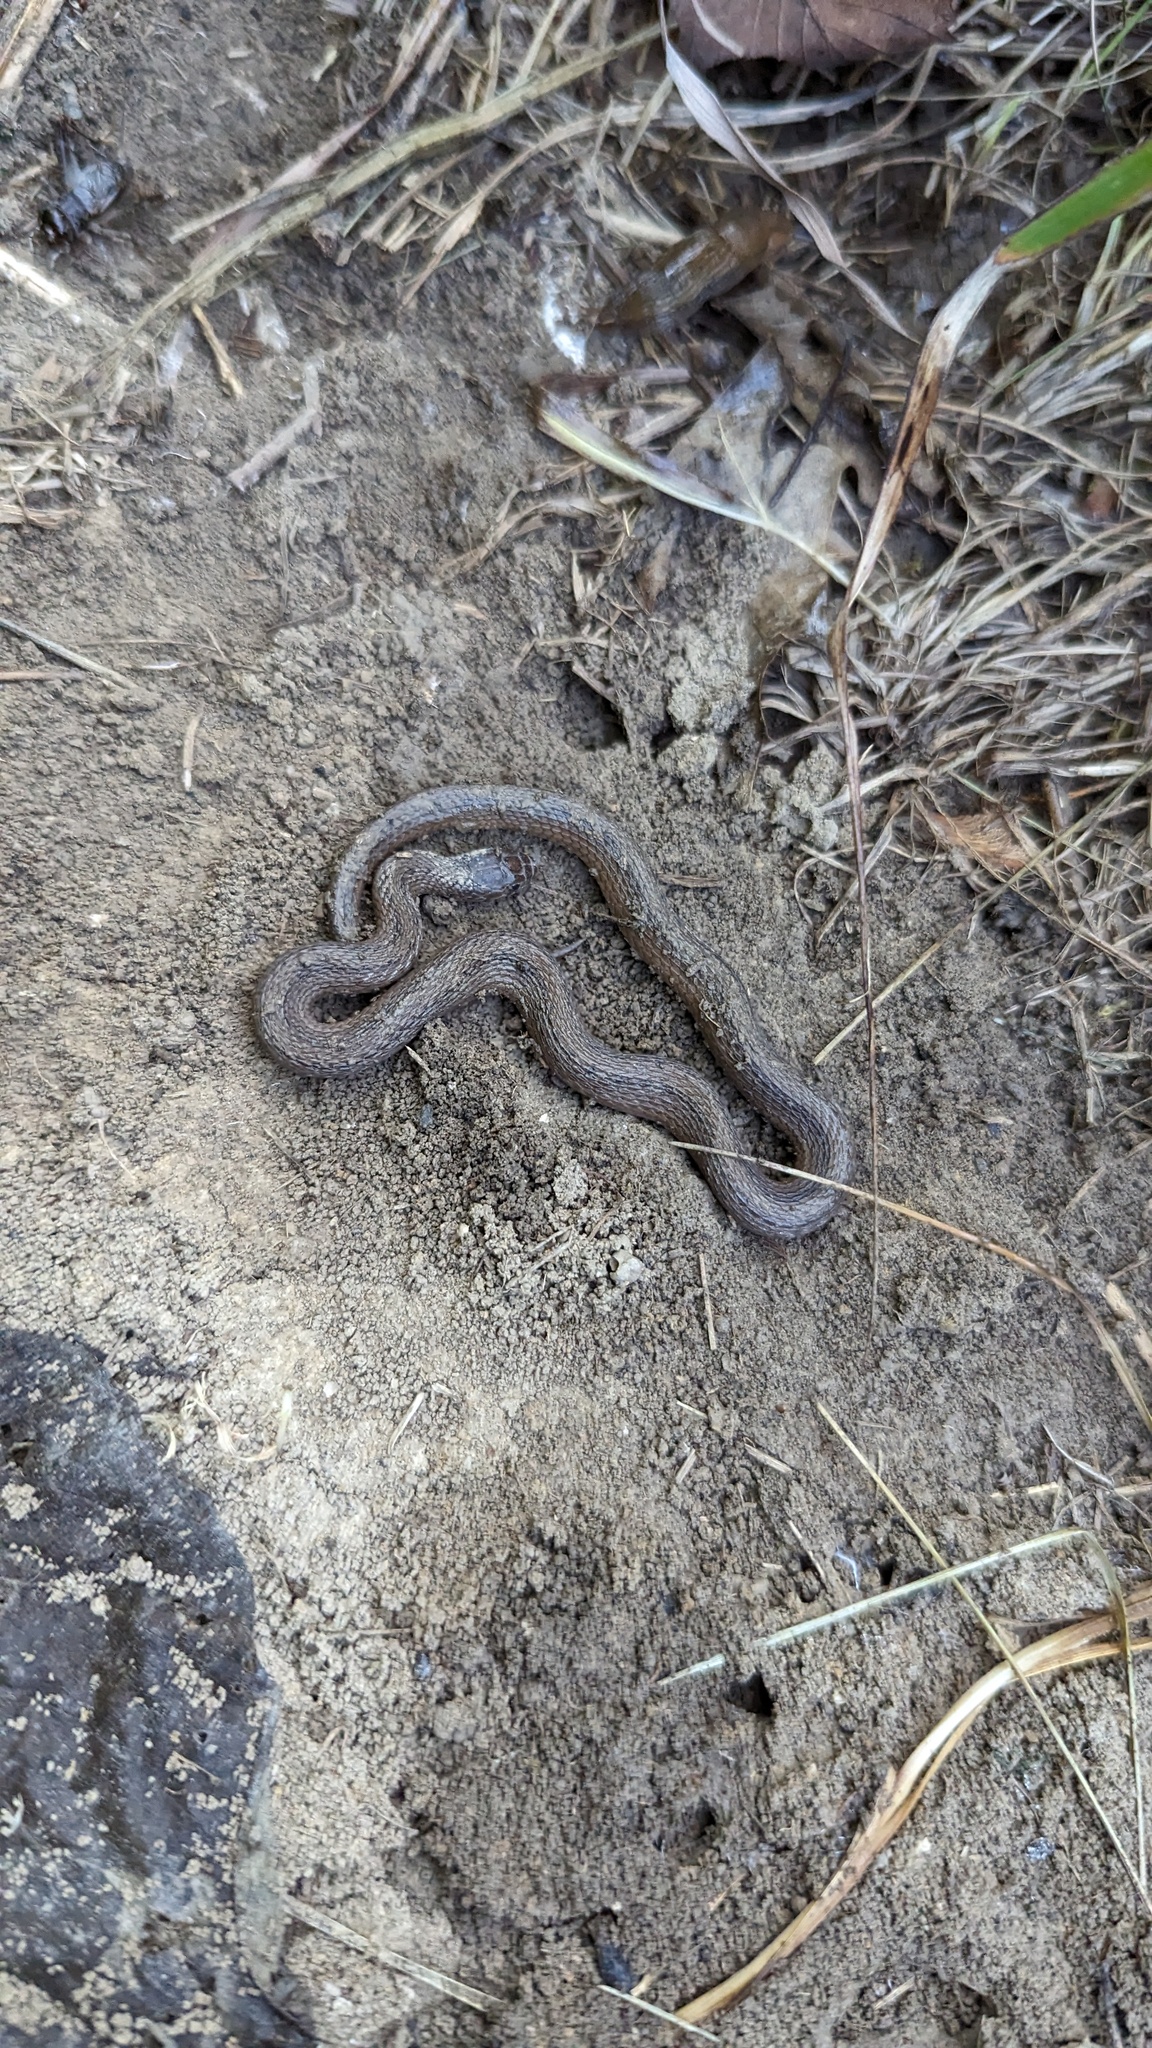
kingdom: Animalia
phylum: Chordata
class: Squamata
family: Colubridae
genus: Thamnophis
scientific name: Thamnophis sirtalis
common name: Common garter snake
